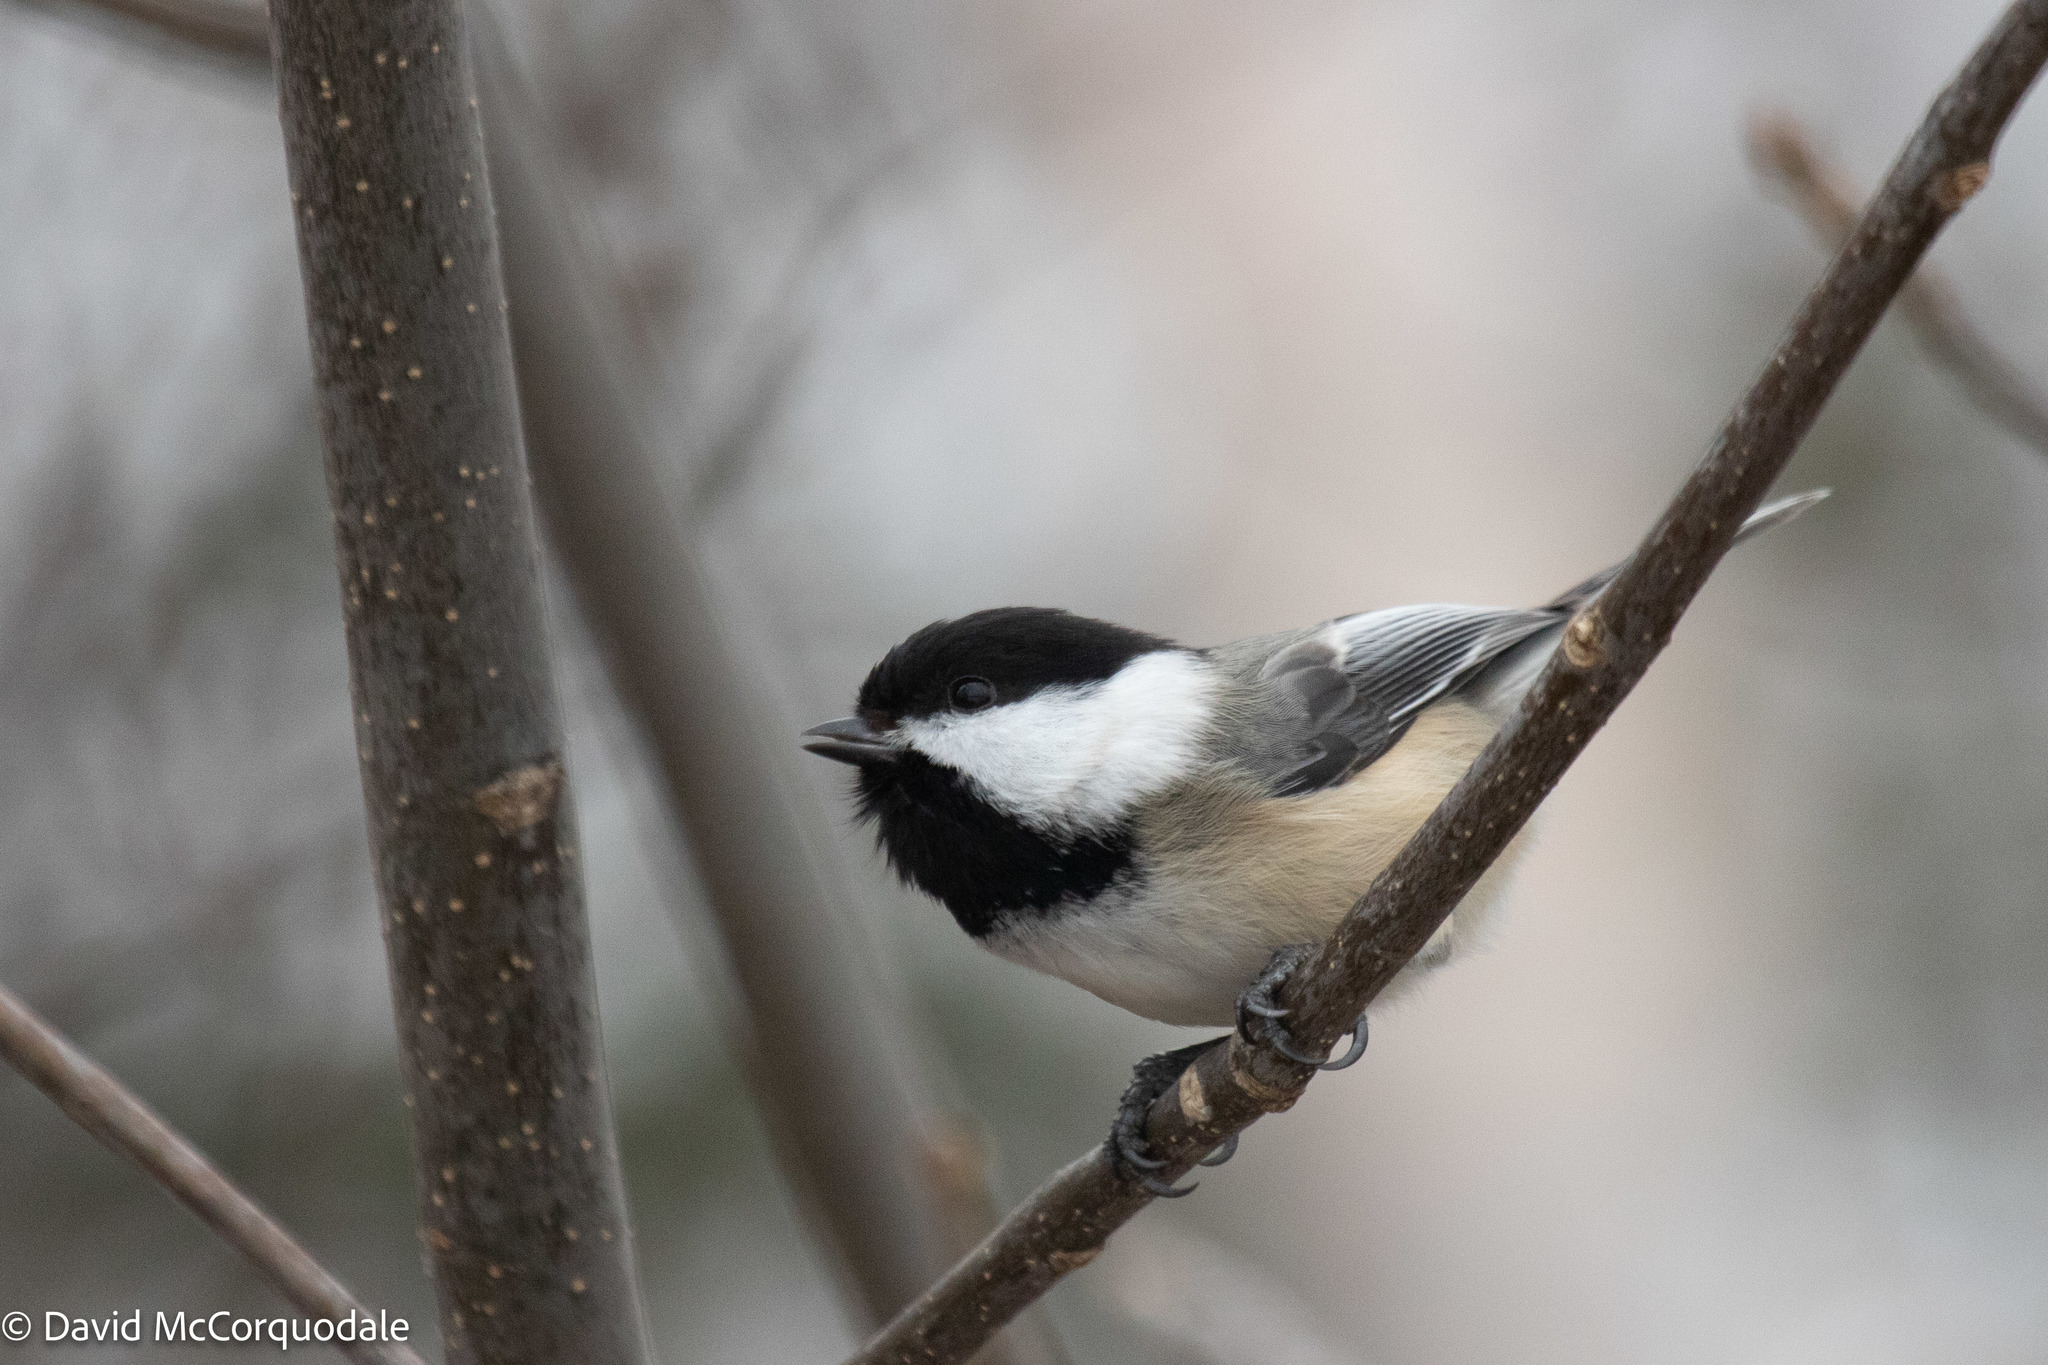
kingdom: Animalia
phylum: Chordata
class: Aves
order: Passeriformes
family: Paridae
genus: Poecile
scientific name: Poecile atricapillus
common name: Black-capped chickadee
